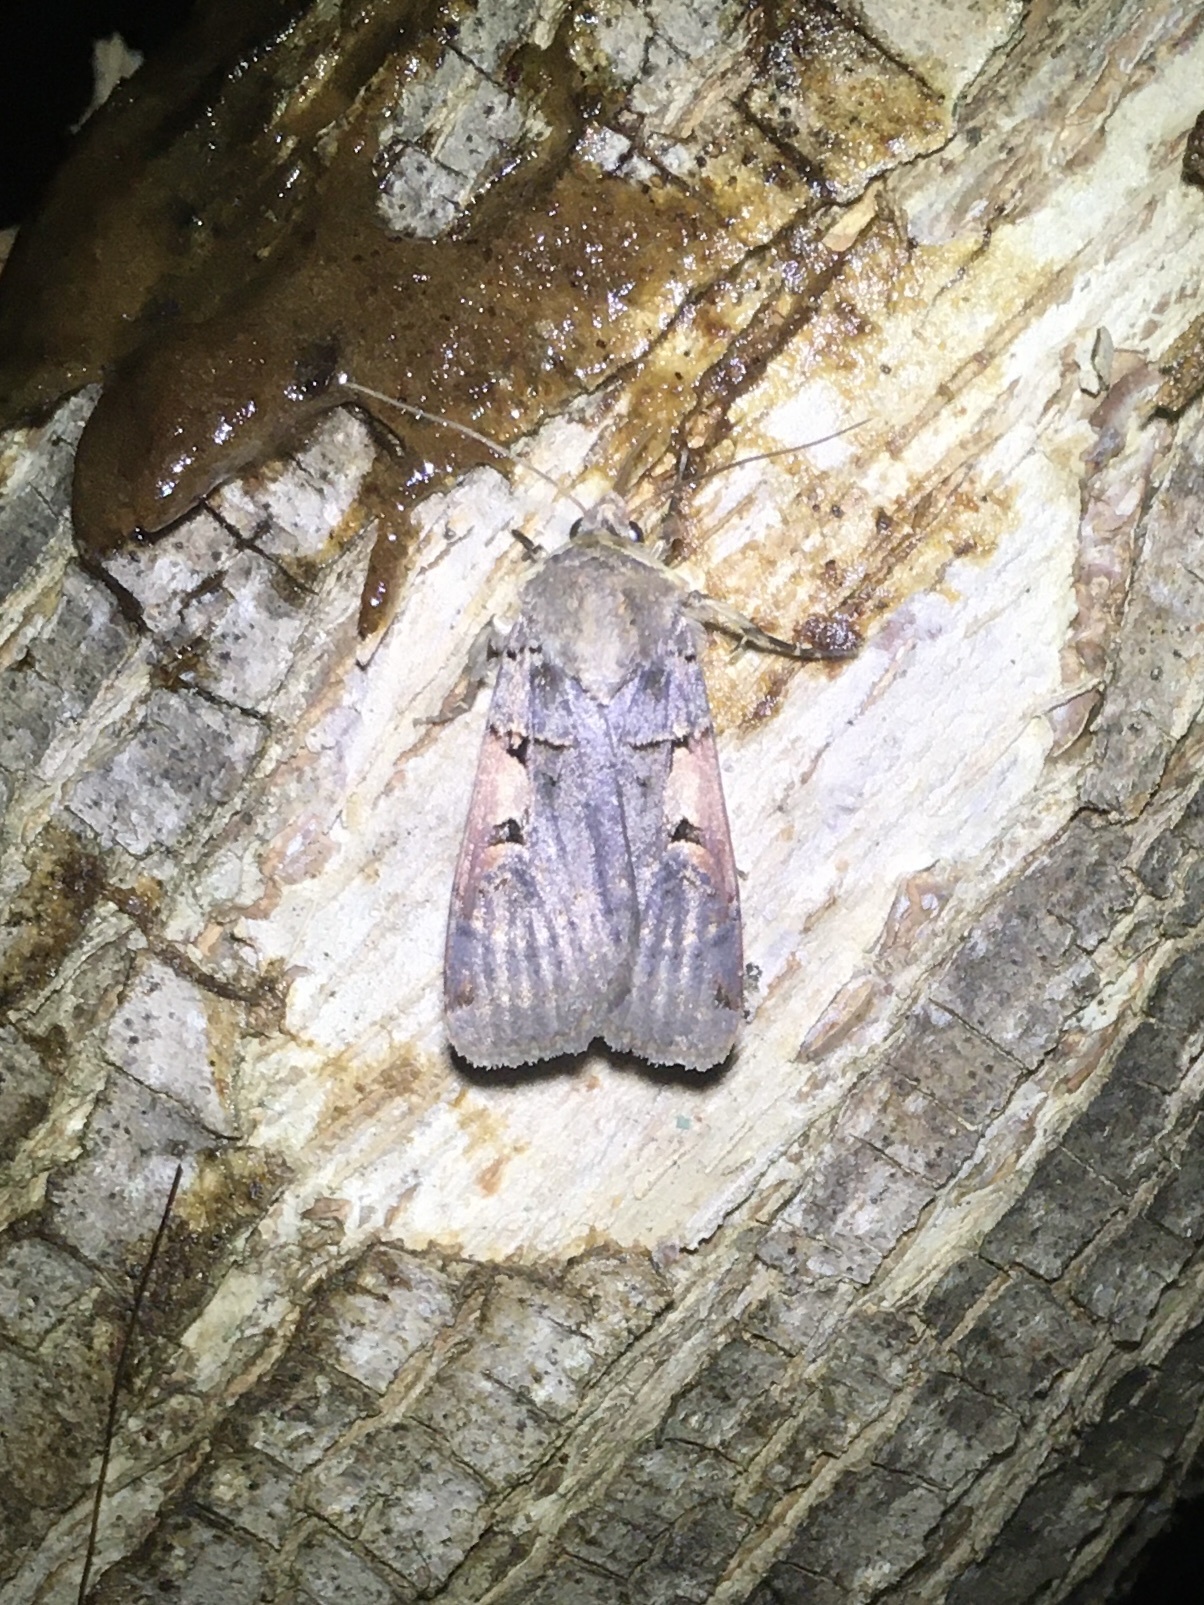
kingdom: Animalia
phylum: Arthropoda
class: Insecta
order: Lepidoptera
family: Noctuidae
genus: Xestia
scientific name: Xestia
